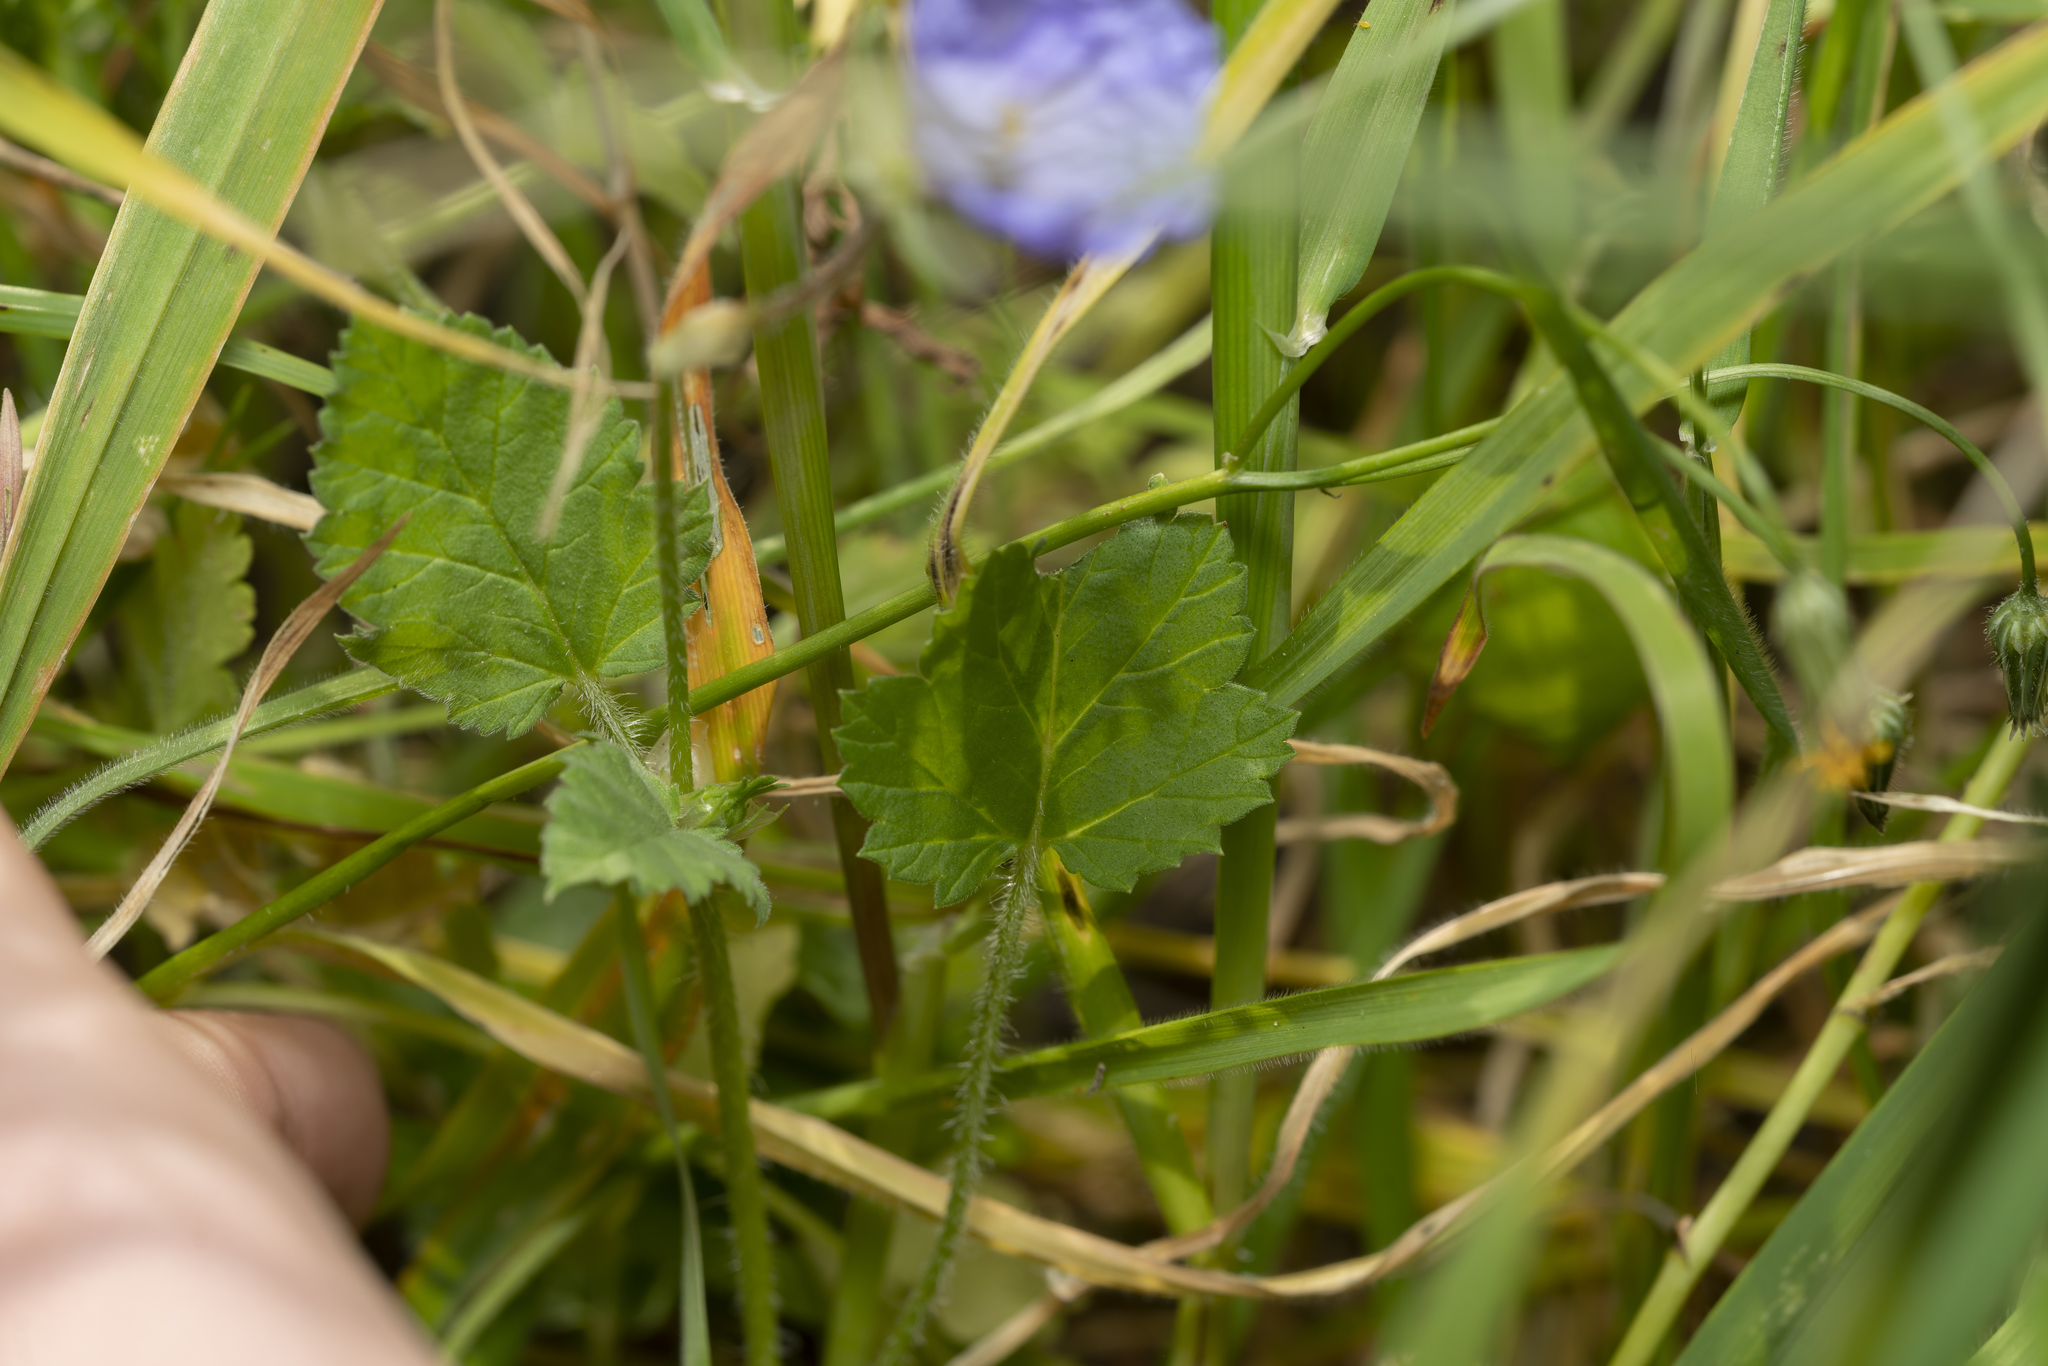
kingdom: Plantae
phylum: Tracheophyta
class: Magnoliopsida
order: Geraniales
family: Geraniaceae
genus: Erodium
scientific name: Erodium gruinum
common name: Iranian stork's bill
